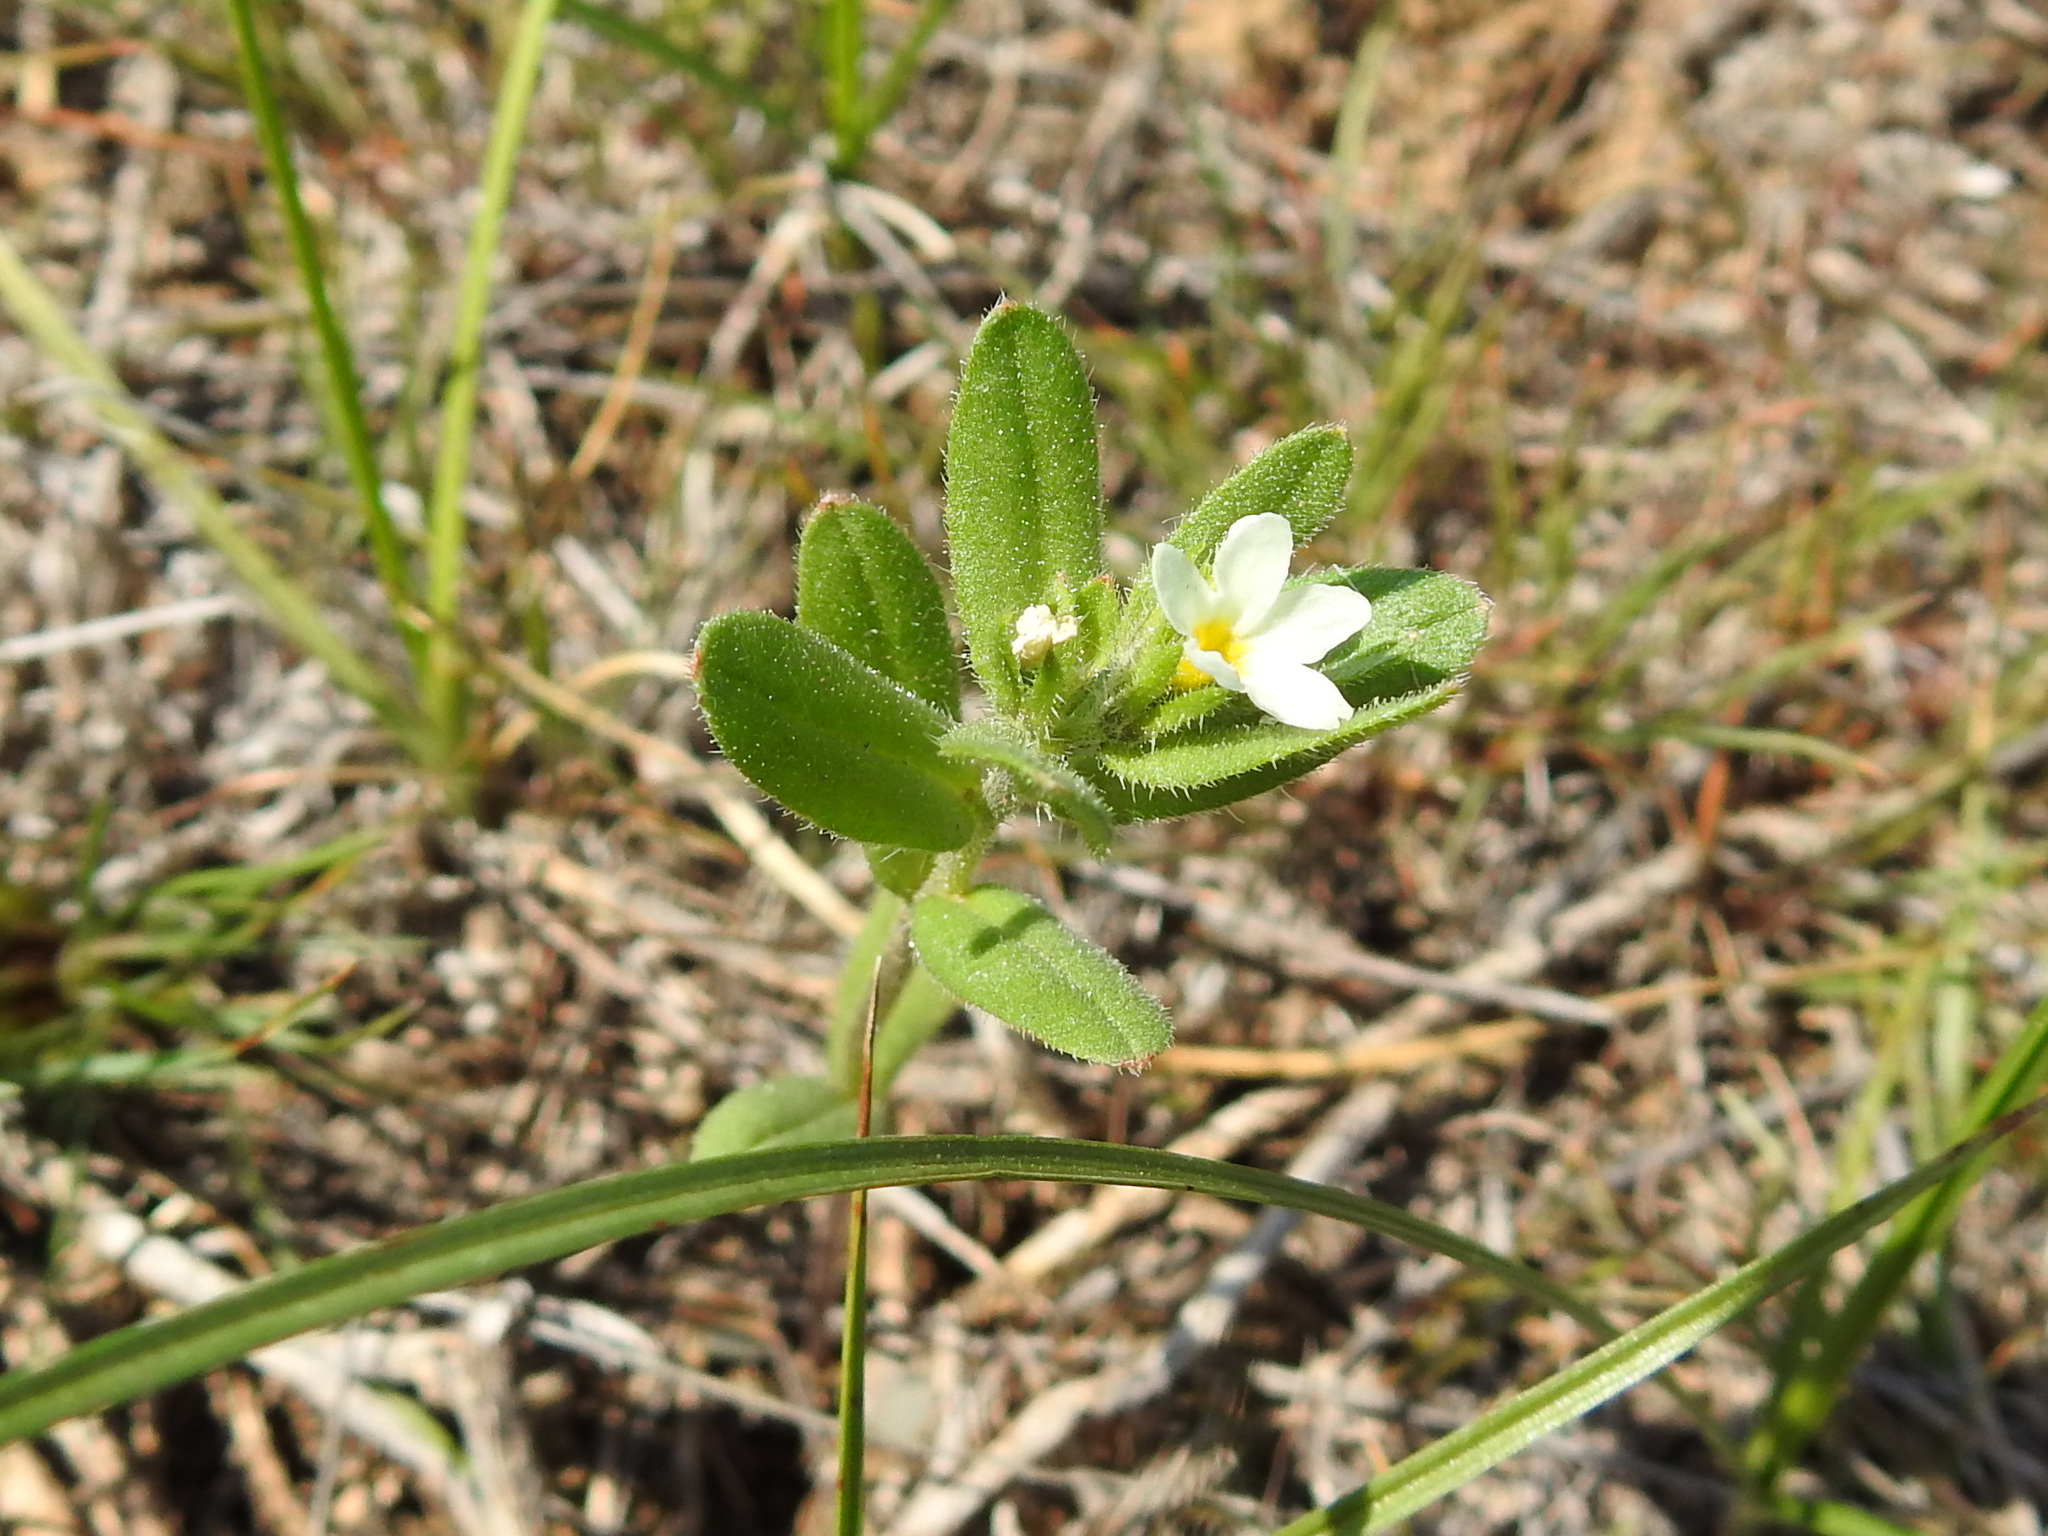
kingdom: Plantae
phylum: Tracheophyta
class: Magnoliopsida
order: Boraginales
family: Boraginaceae
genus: Buglossoides
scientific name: Buglossoides czernjajevii
